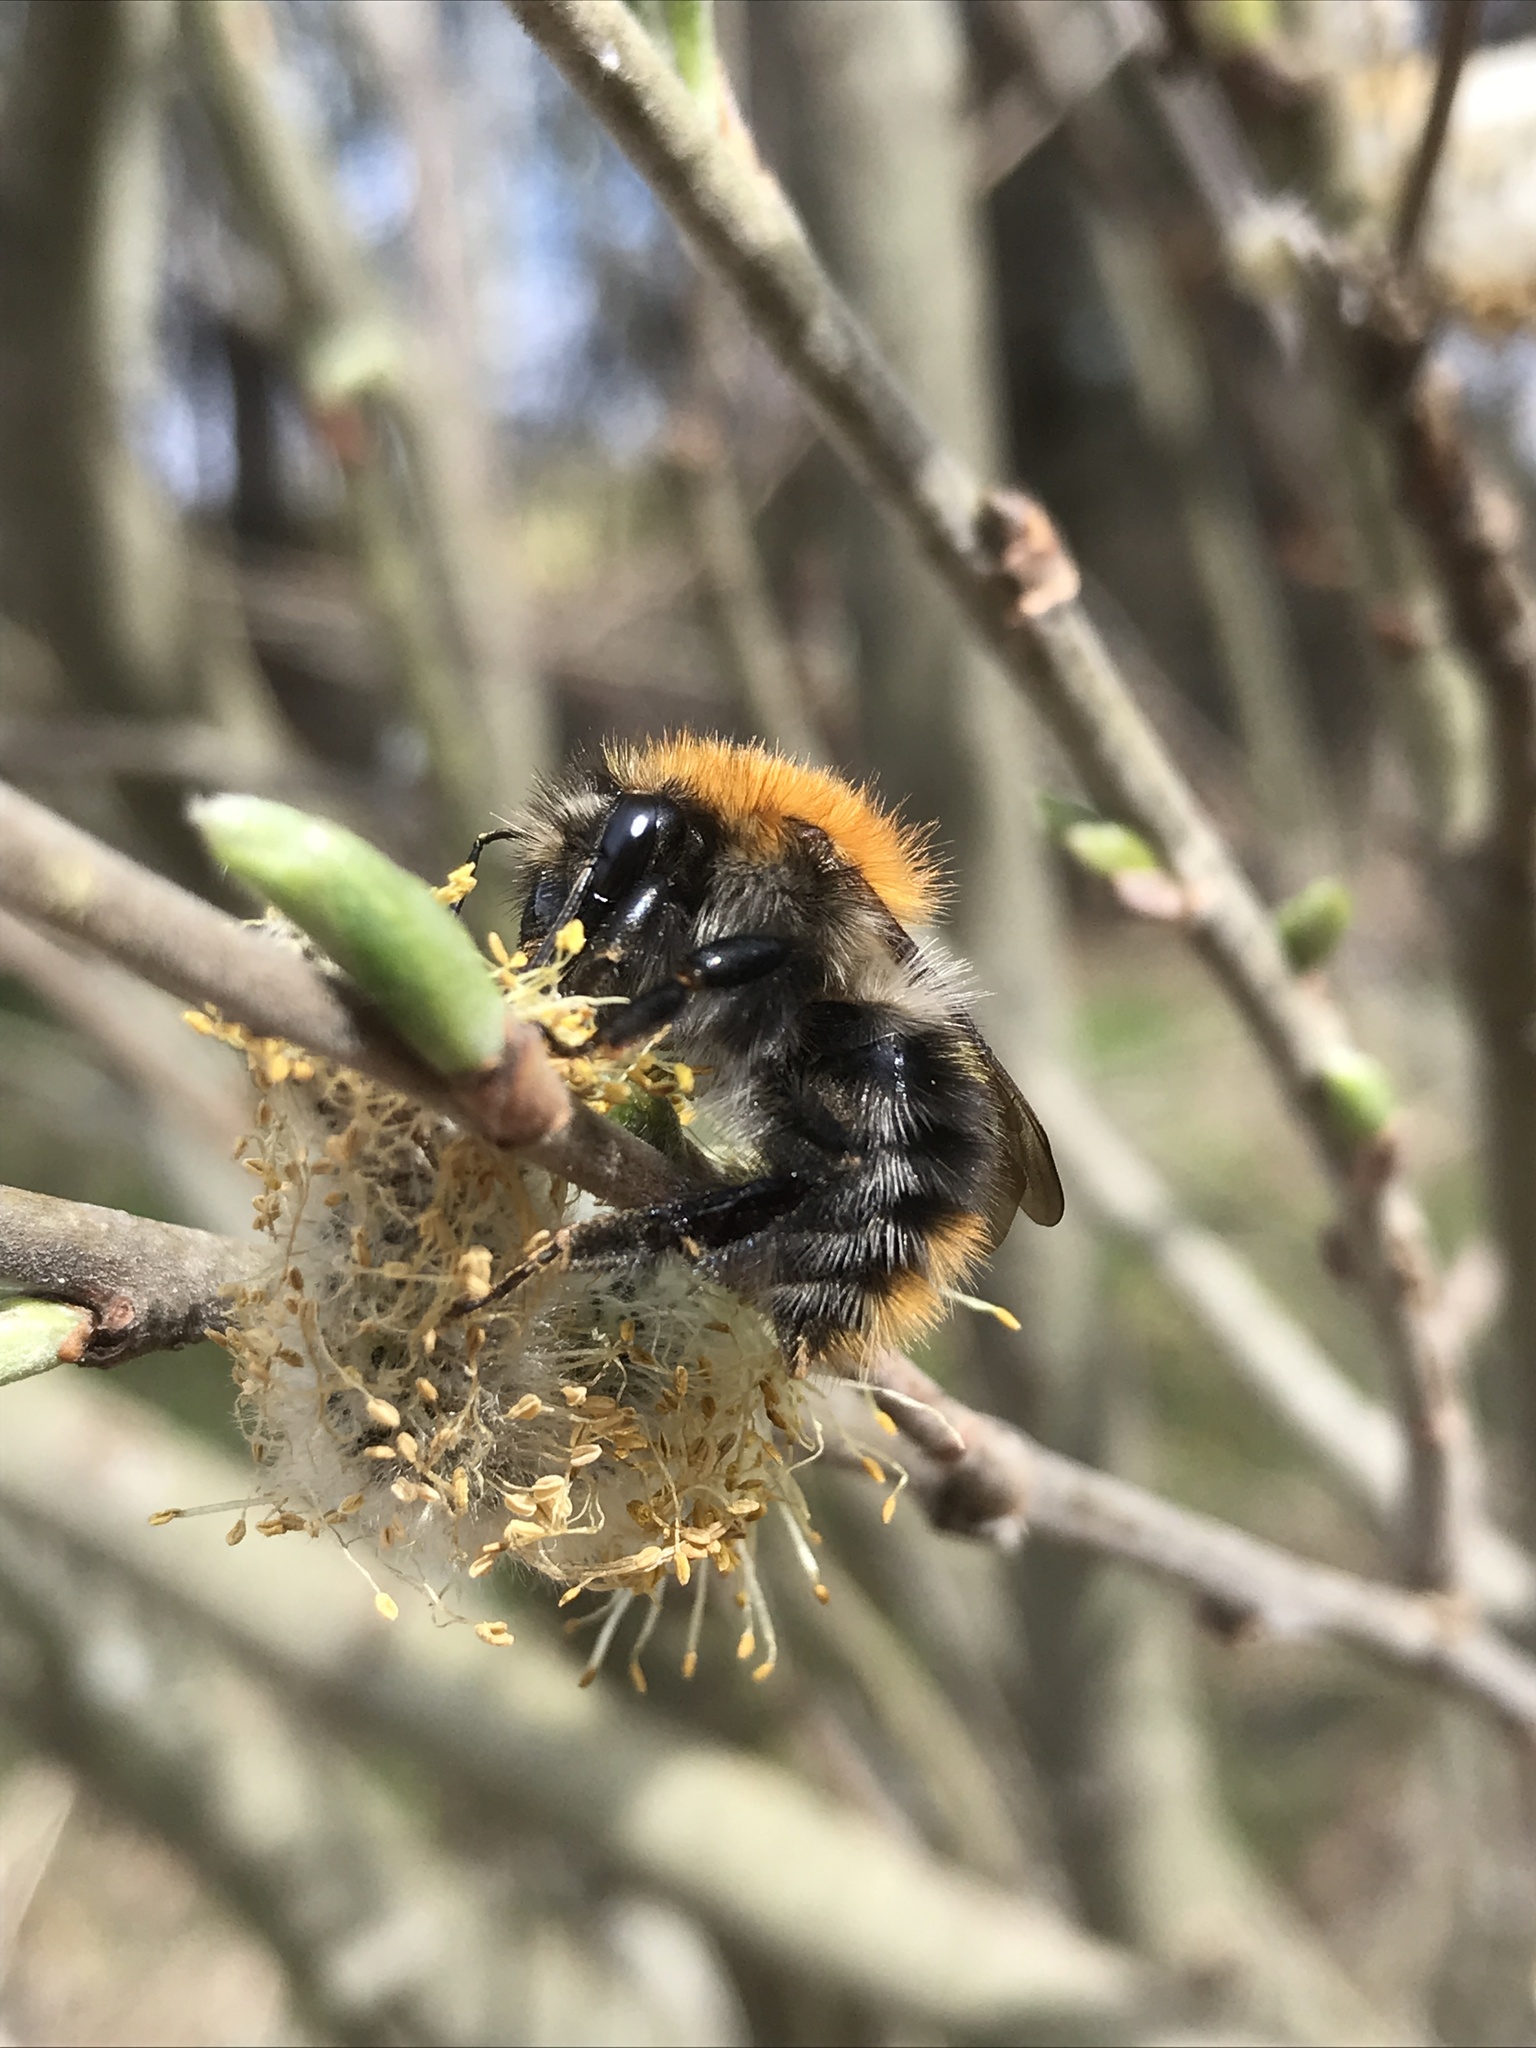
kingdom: Animalia
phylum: Arthropoda
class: Insecta
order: Hymenoptera
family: Apidae
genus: Bombus
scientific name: Bombus pascuorum
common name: Common carder bee
